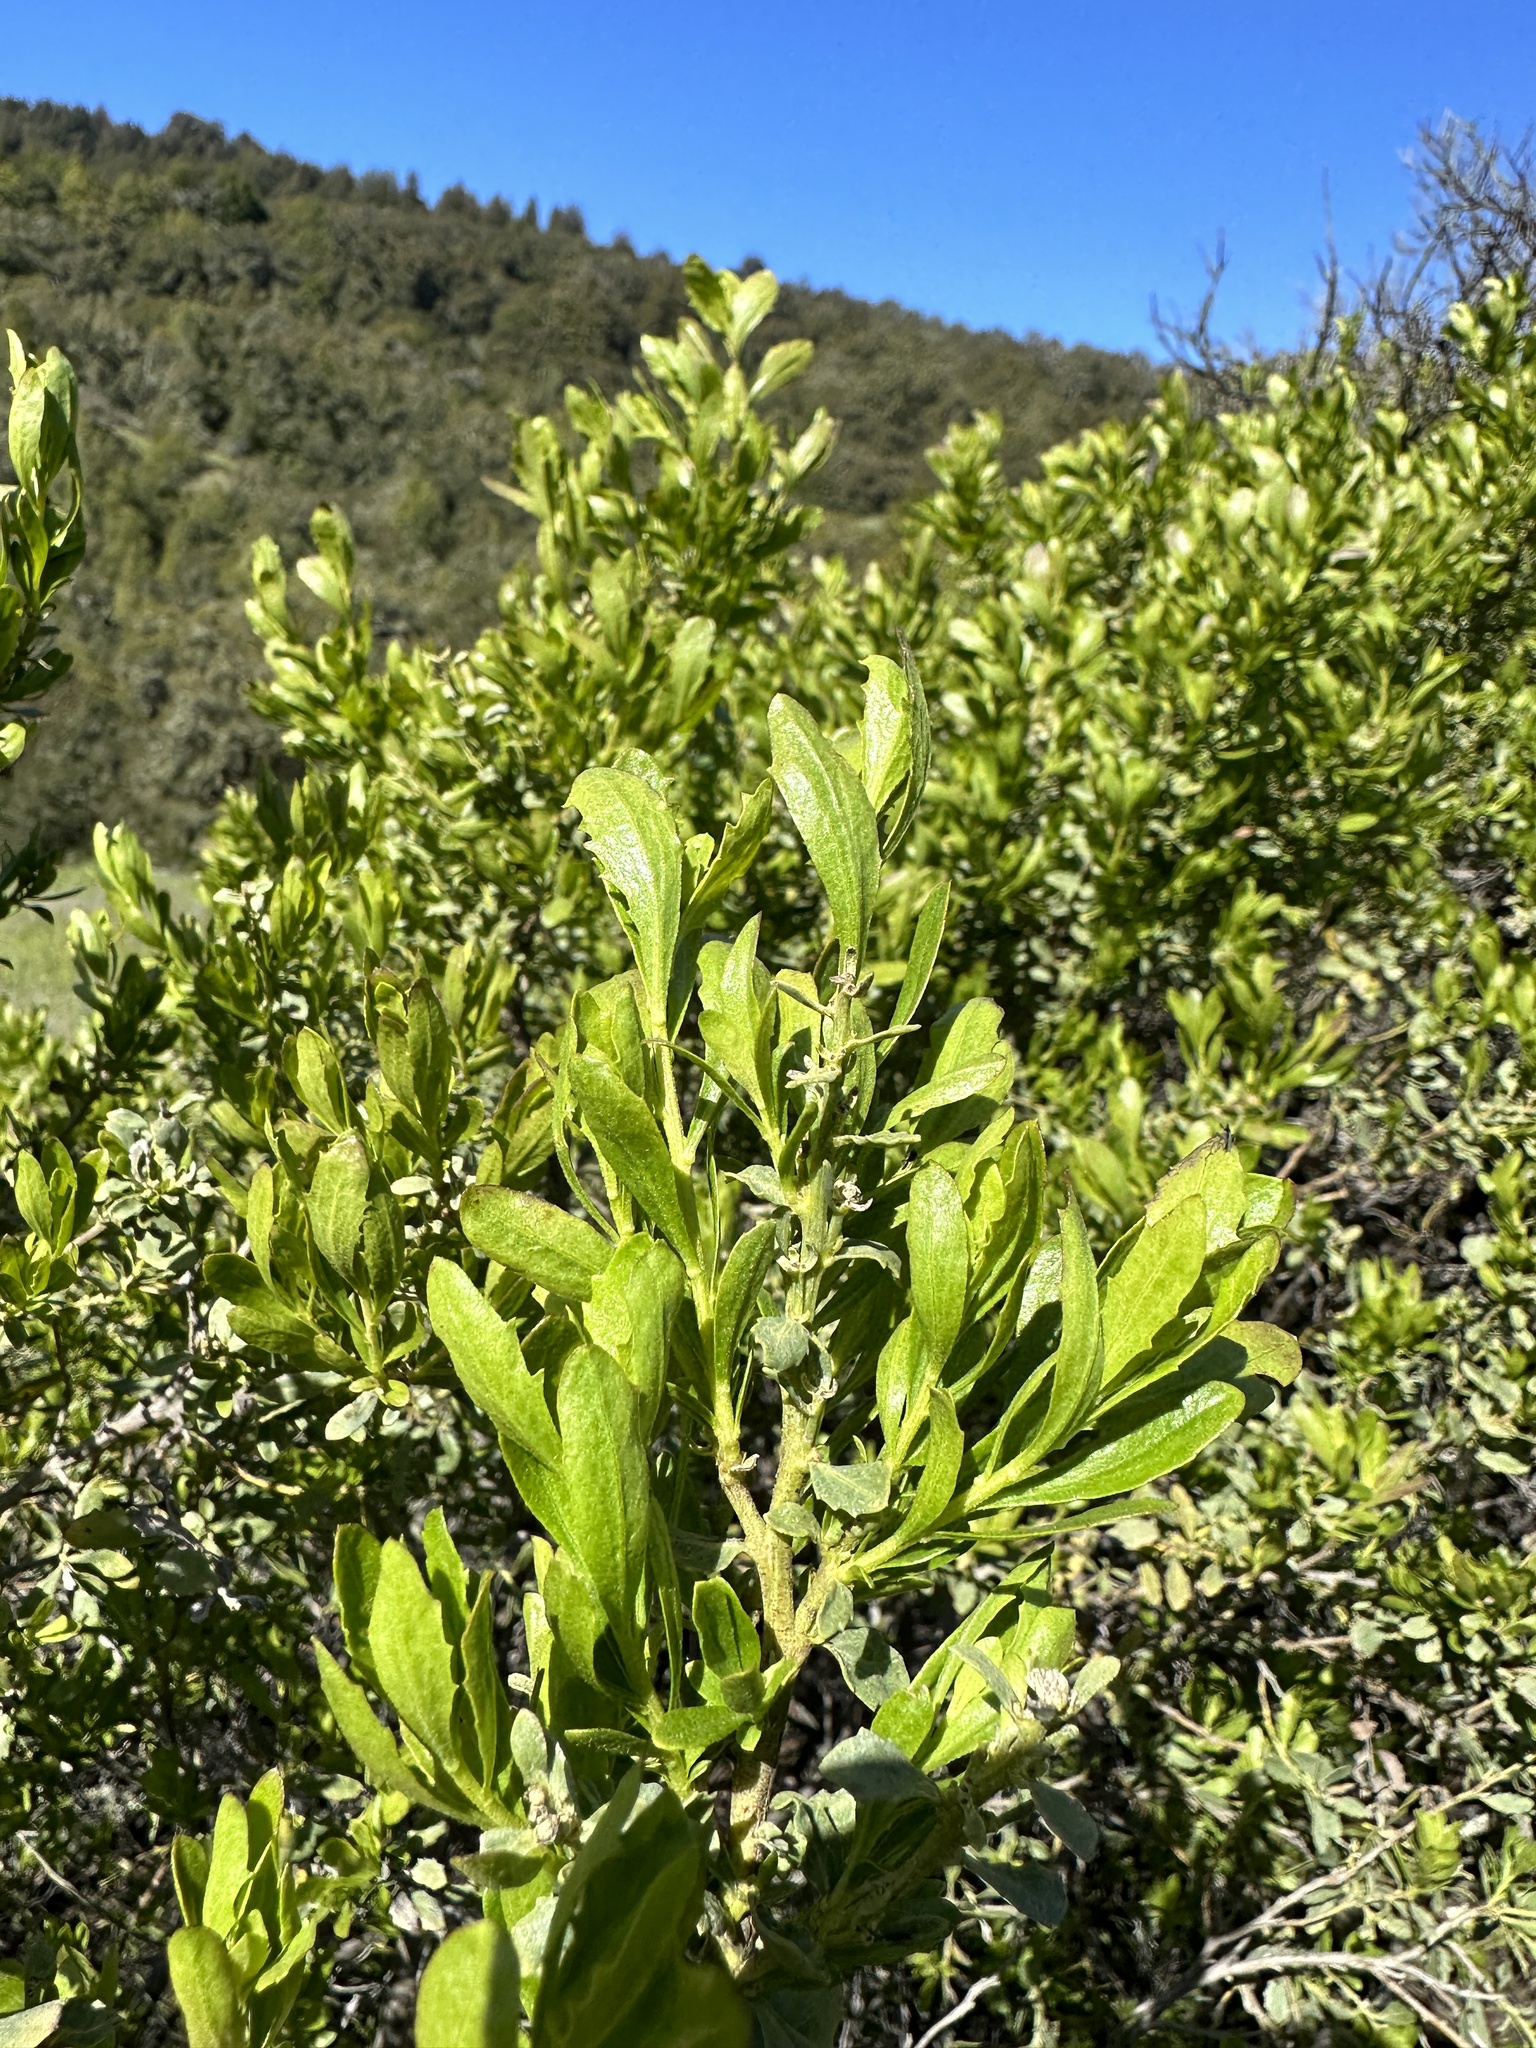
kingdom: Plantae
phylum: Tracheophyta
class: Magnoliopsida
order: Asterales
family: Asteraceae
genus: Baccharis
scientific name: Baccharis pilularis
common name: Coyotebrush
